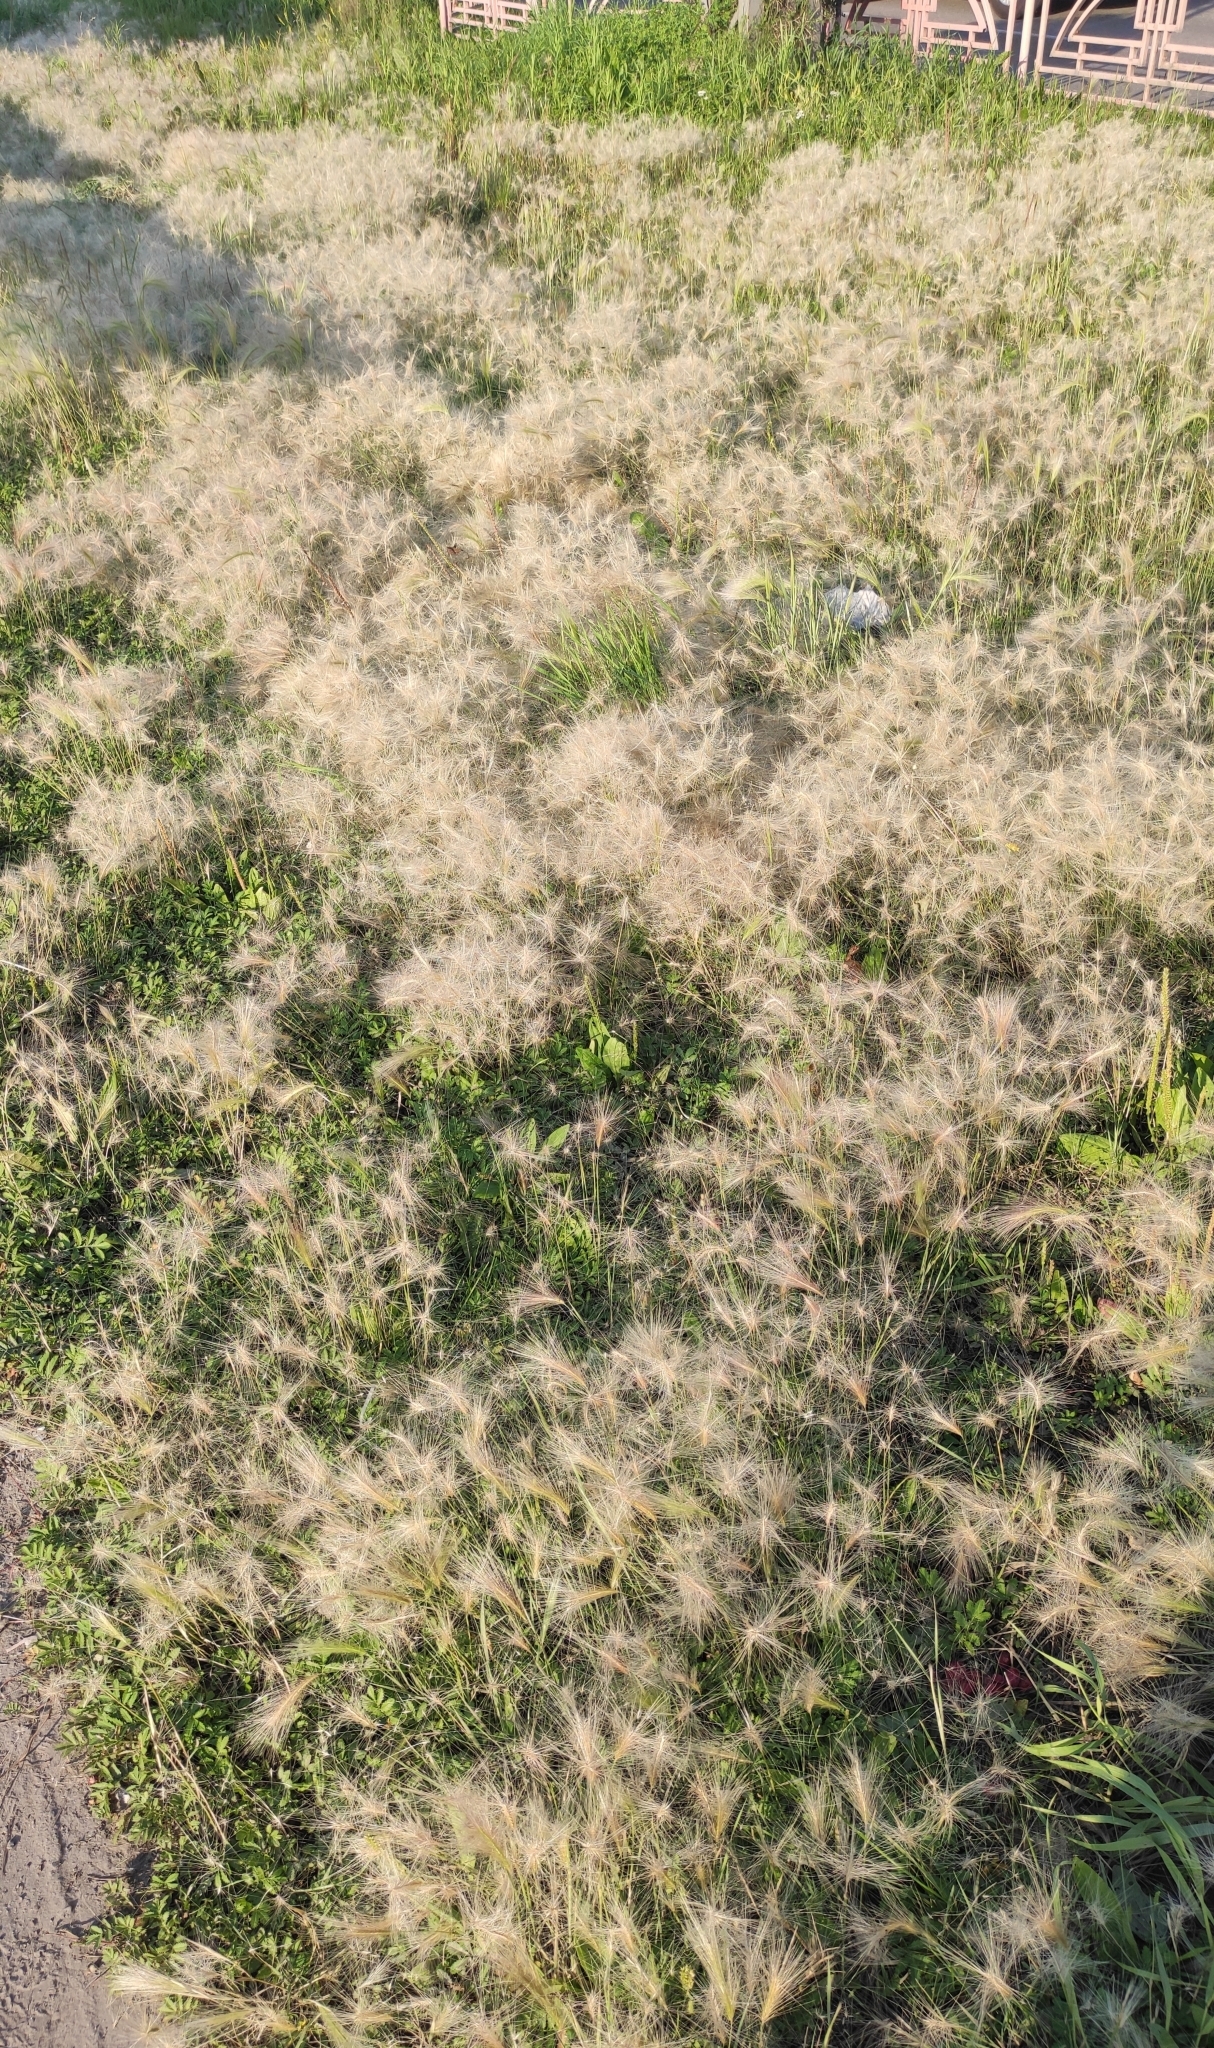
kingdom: Plantae
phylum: Tracheophyta
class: Liliopsida
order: Poales
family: Poaceae
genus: Hordeum
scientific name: Hordeum jubatum
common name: Foxtail barley
